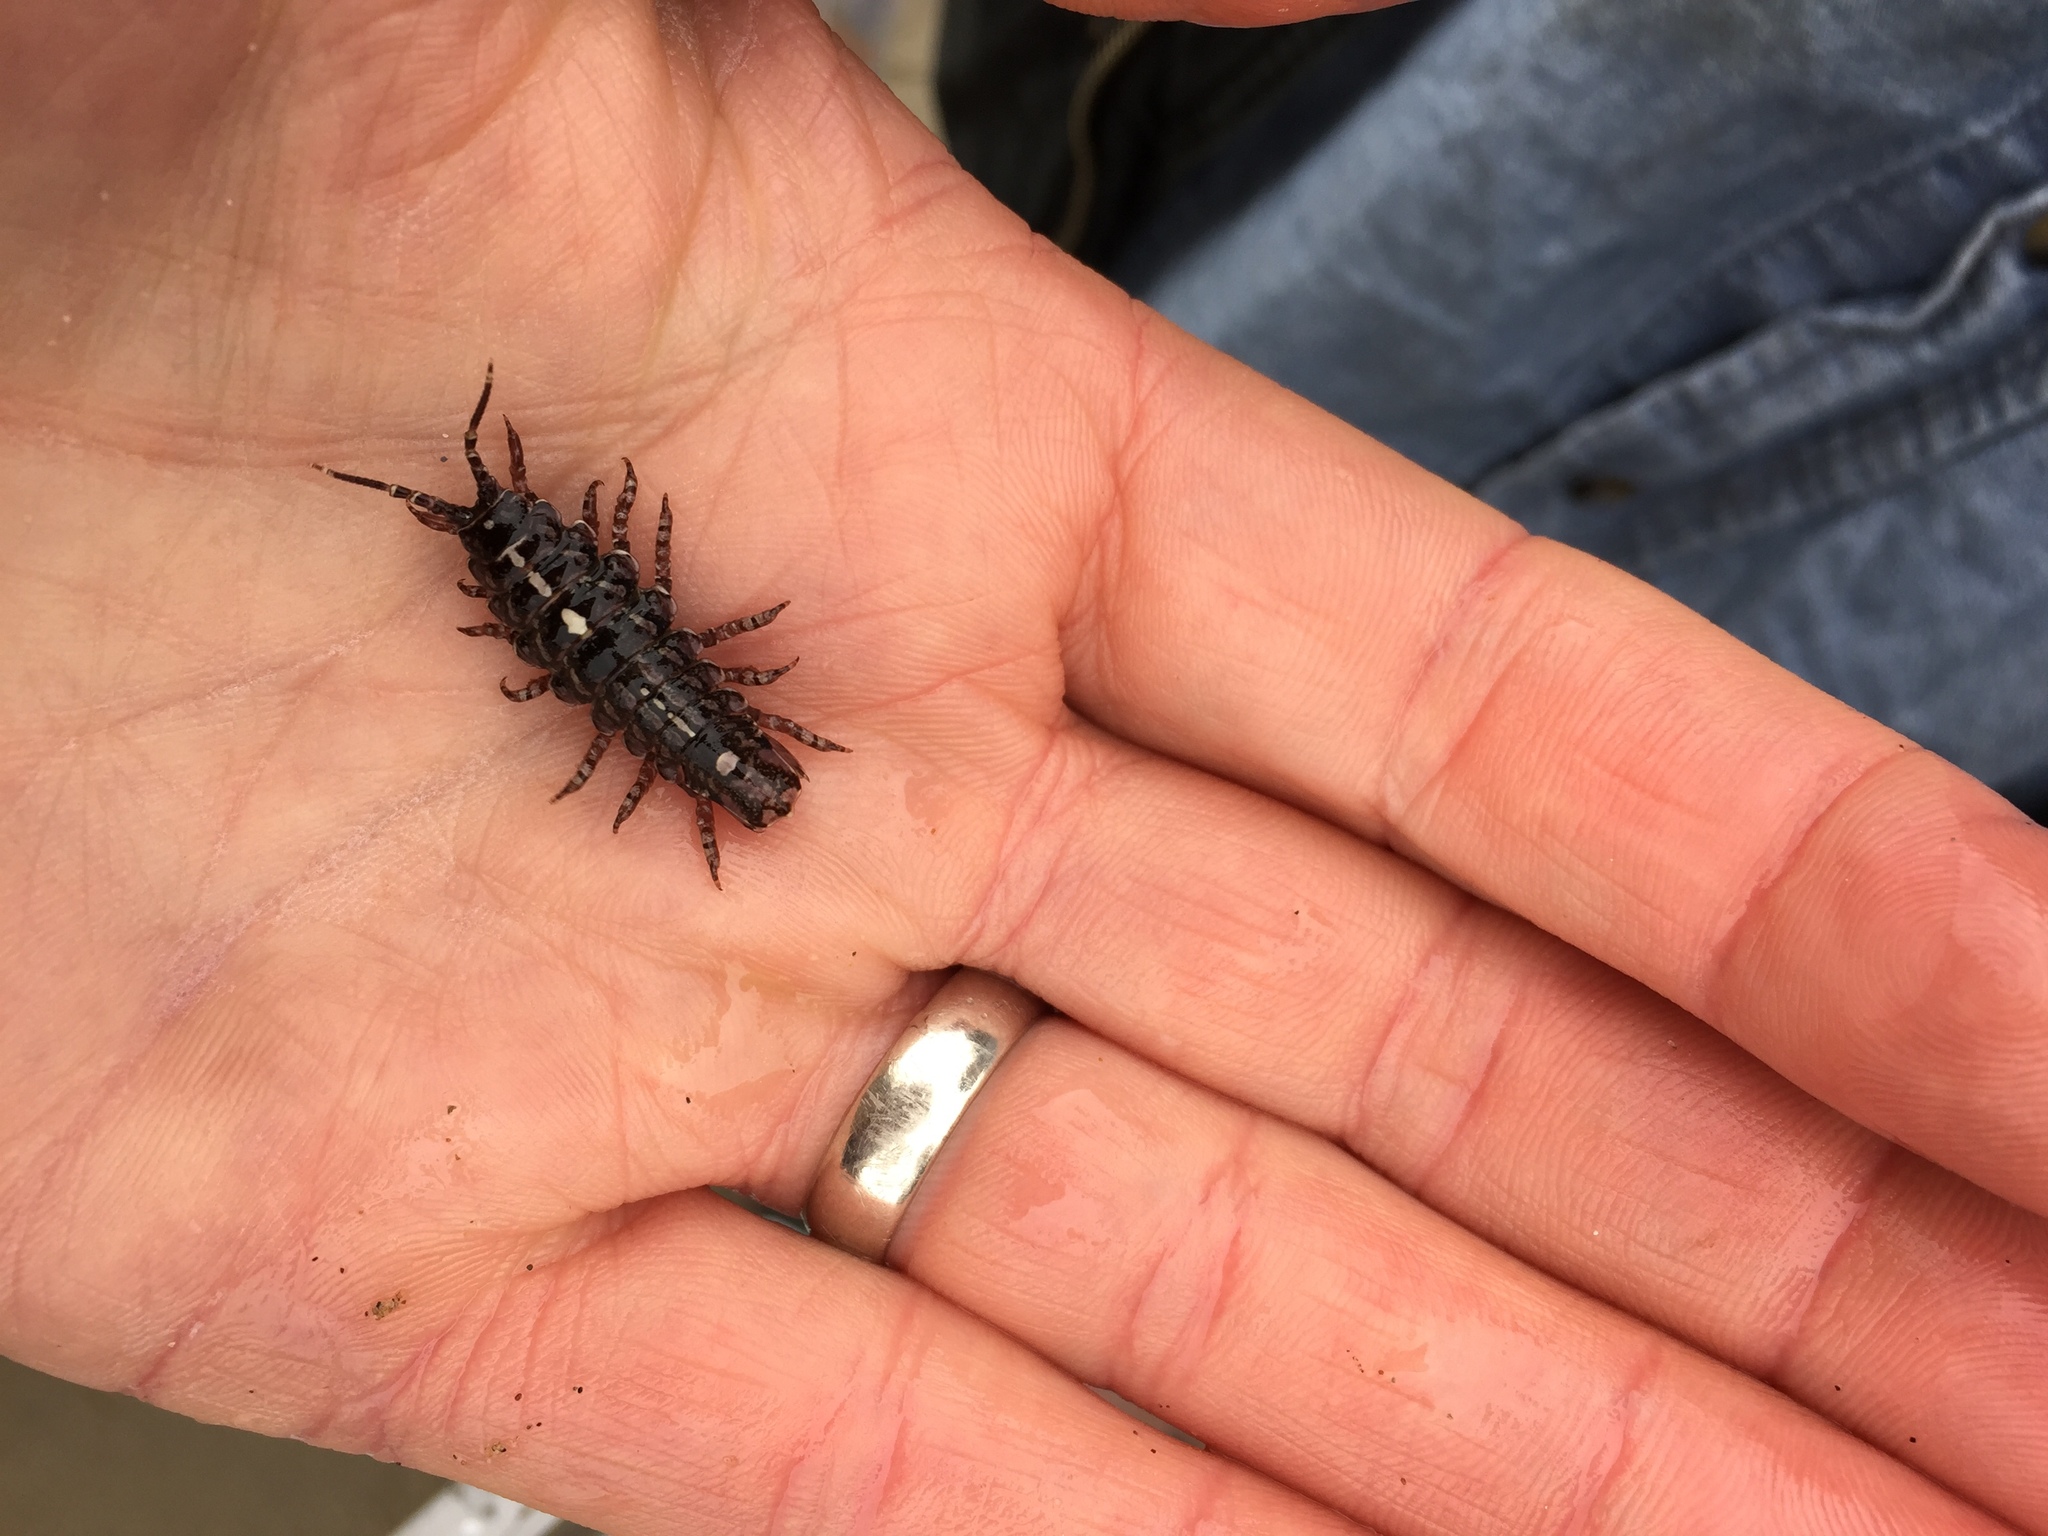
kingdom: Animalia
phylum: Arthropoda
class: Malacostraca
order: Isopoda
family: Idoteidae
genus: Pentidotea
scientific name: Pentidotea schmitti
